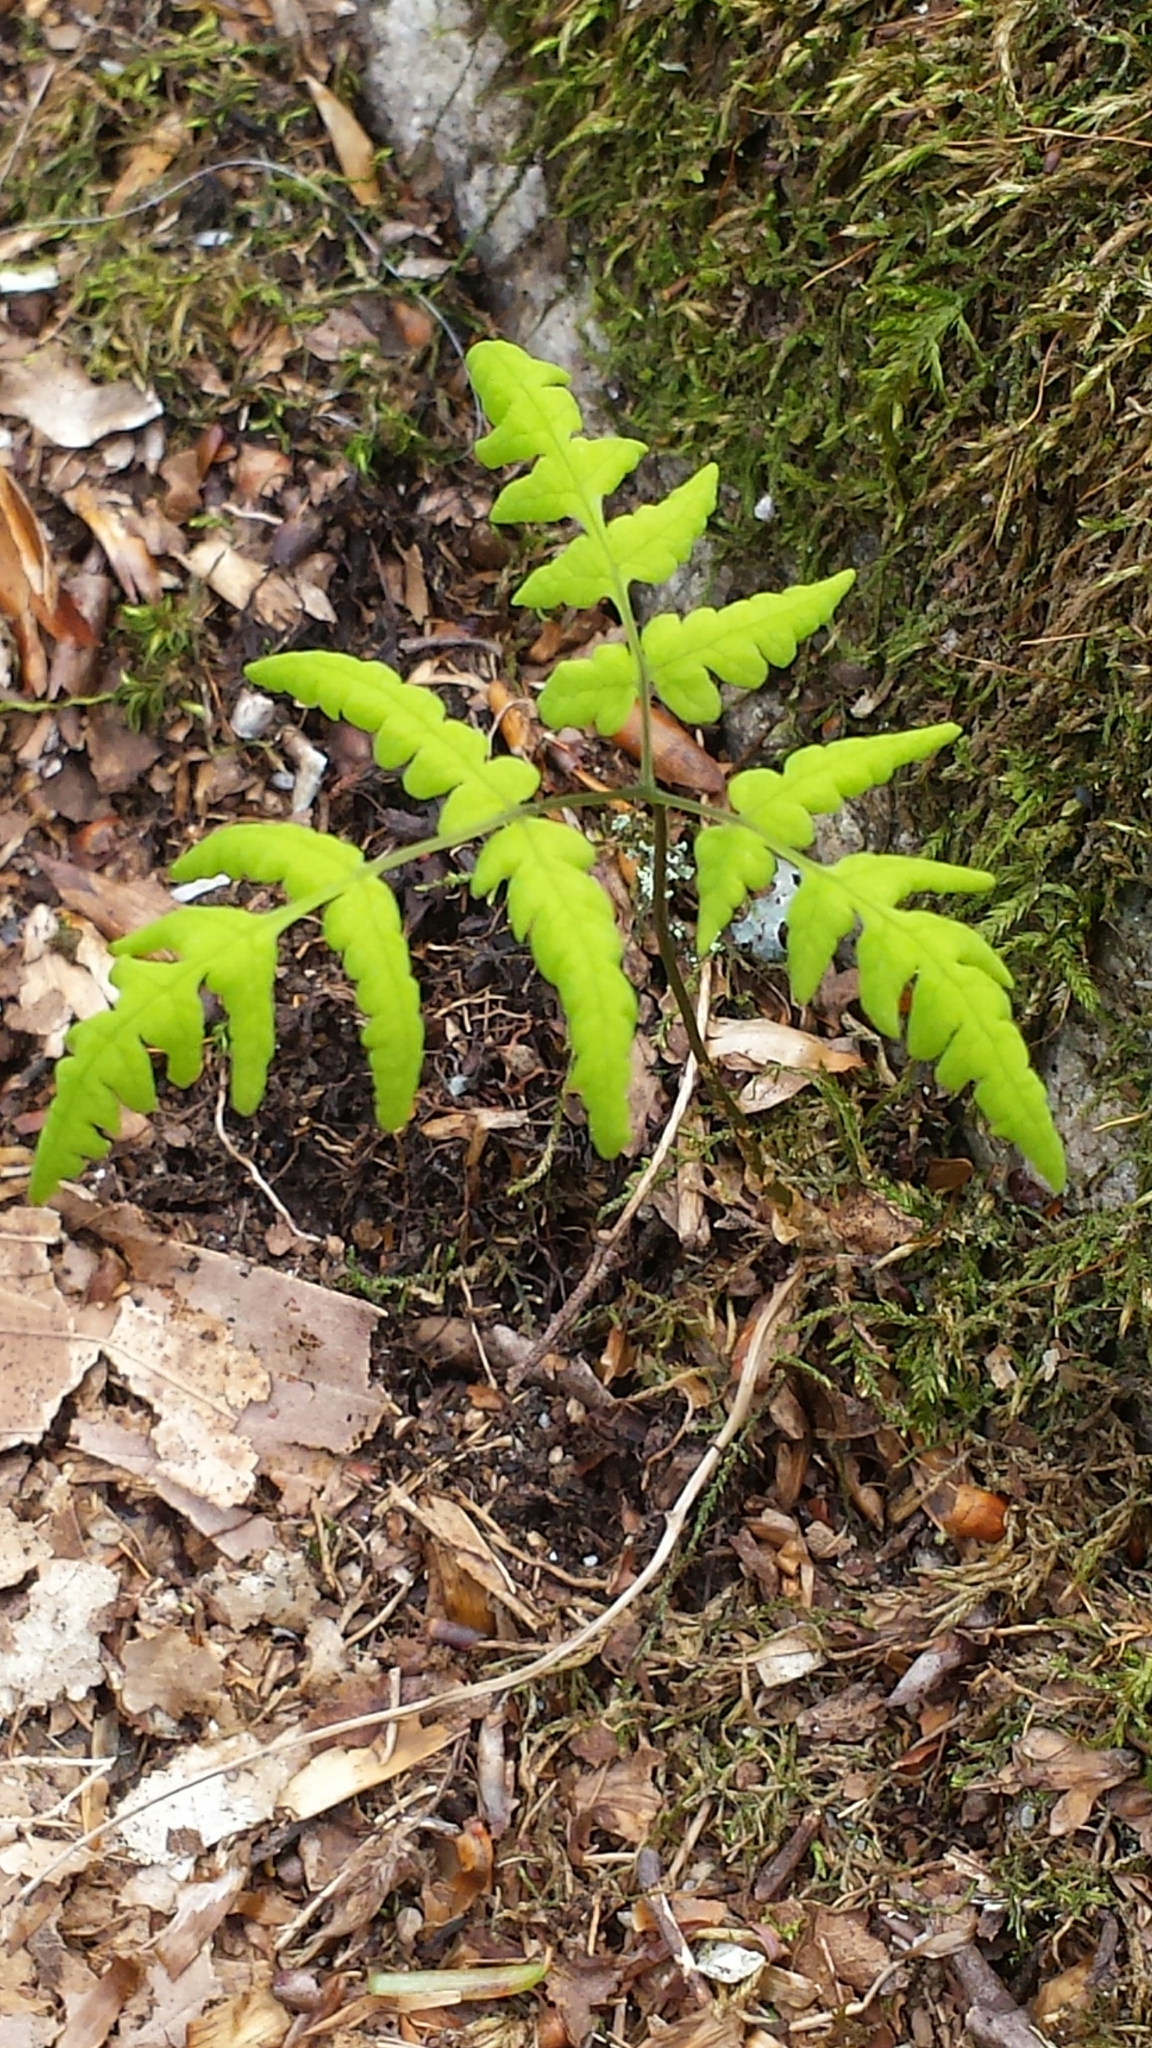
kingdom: Plantae
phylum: Tracheophyta
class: Polypodiopsida
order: Polypodiales
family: Cystopteridaceae
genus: Gymnocarpium
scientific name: Gymnocarpium dryopteris
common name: Oak fern
